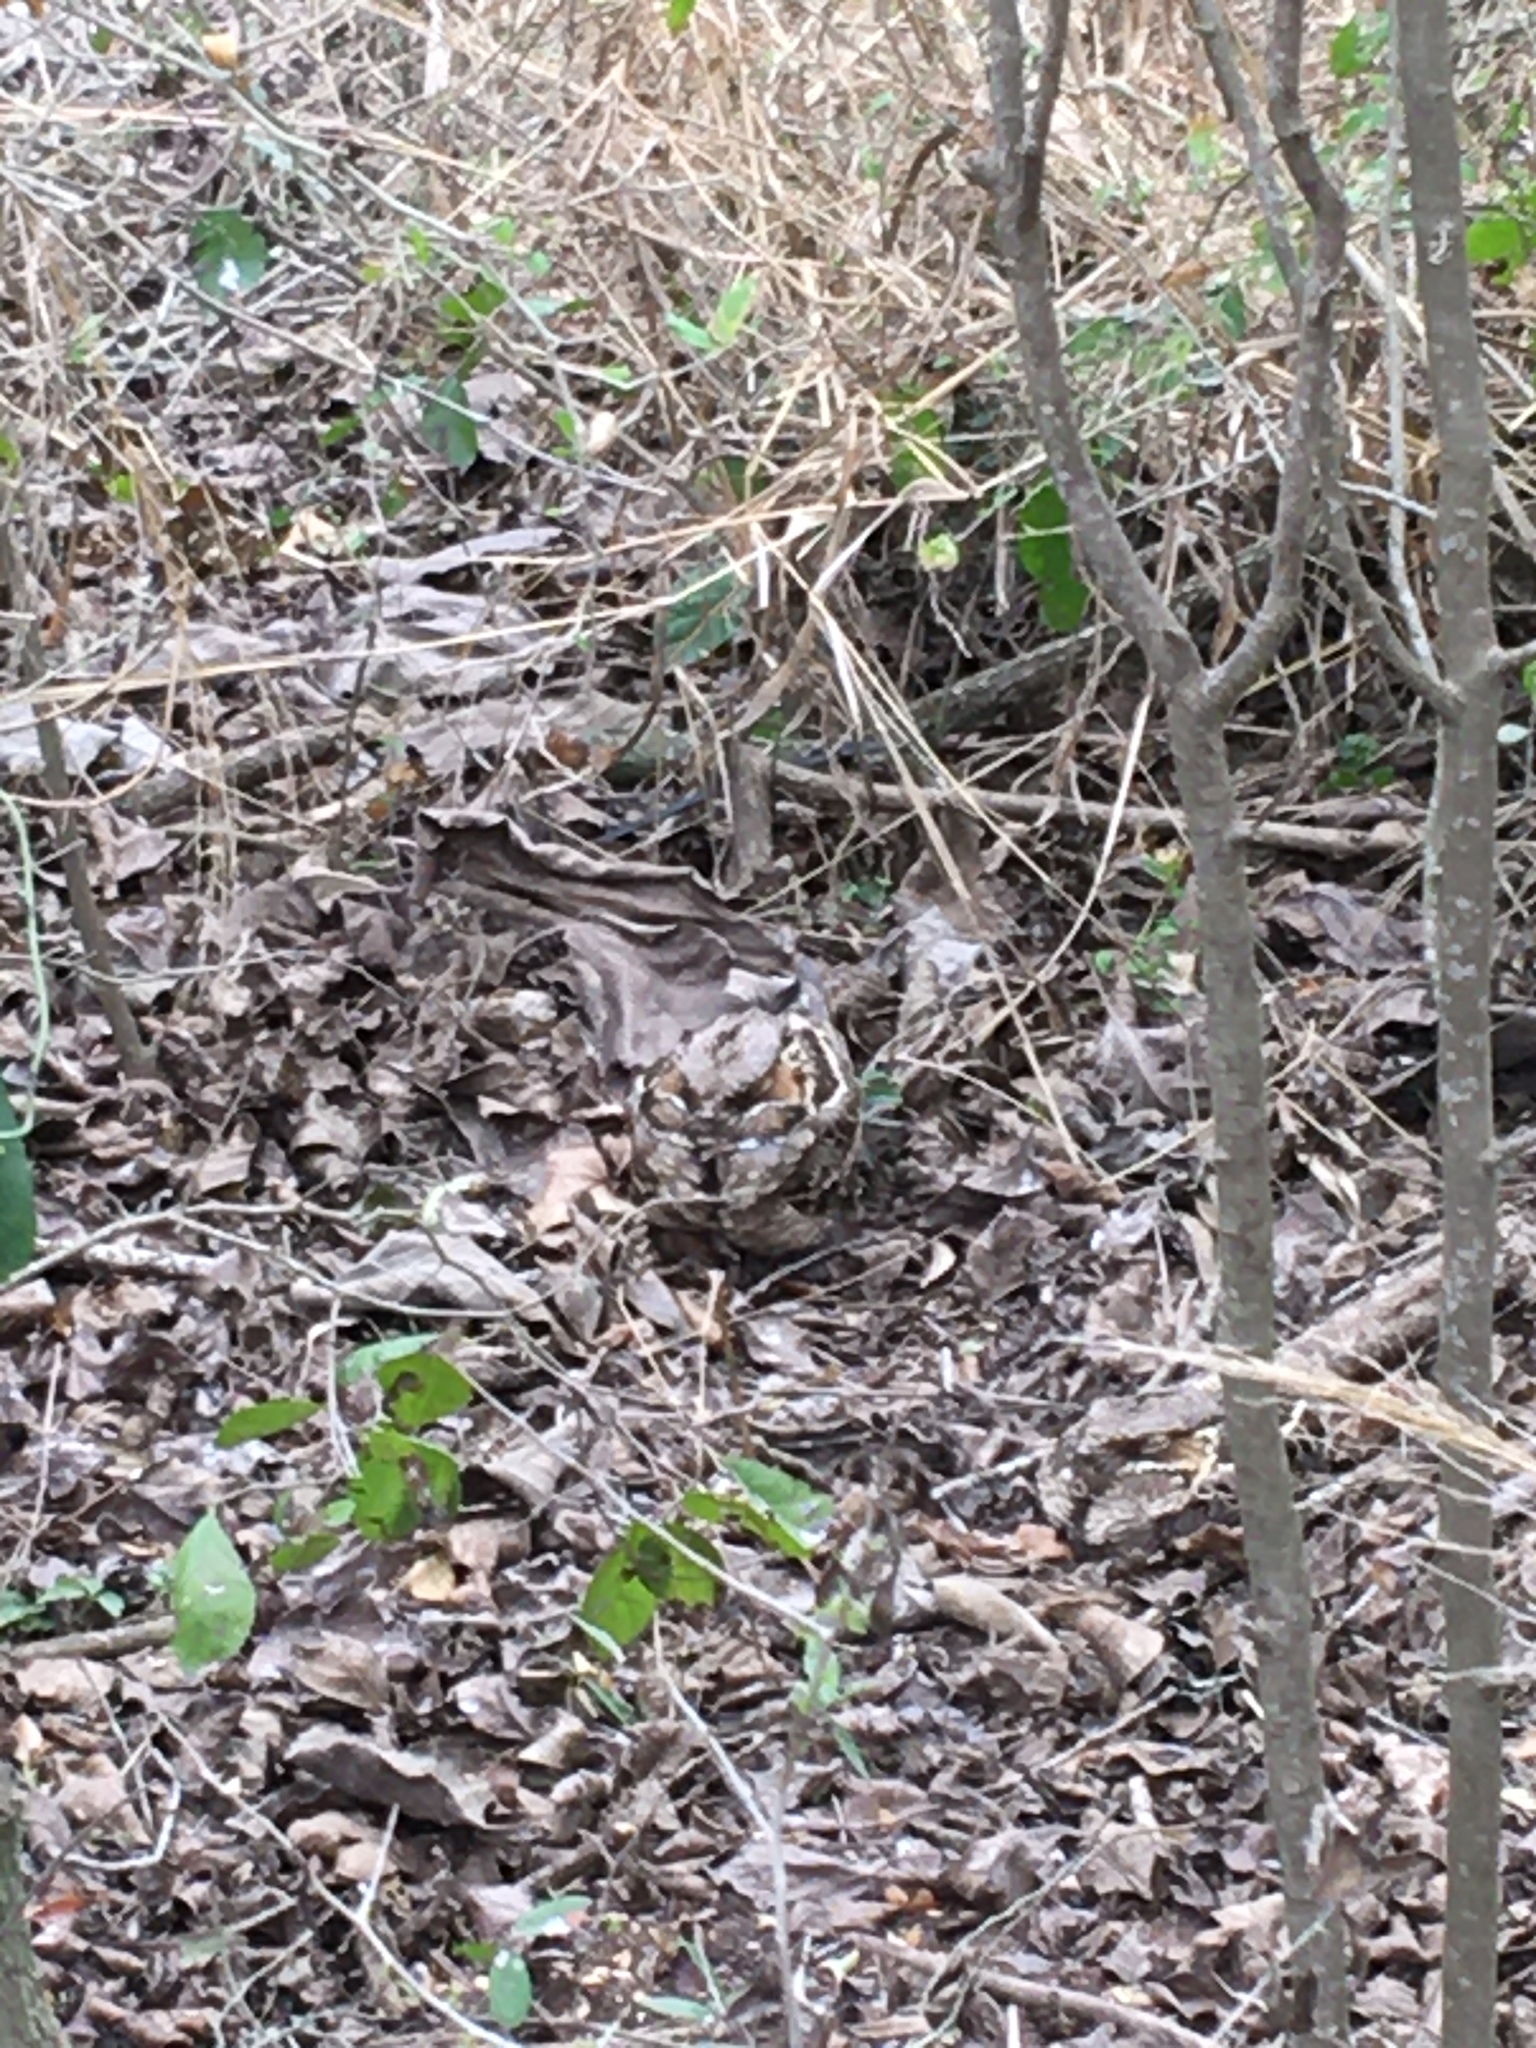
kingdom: Animalia
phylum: Chordata
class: Aves
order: Caprimulgiformes
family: Caprimulgidae
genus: Nyctidromus
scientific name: Nyctidromus albicollis
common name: Pauraque
